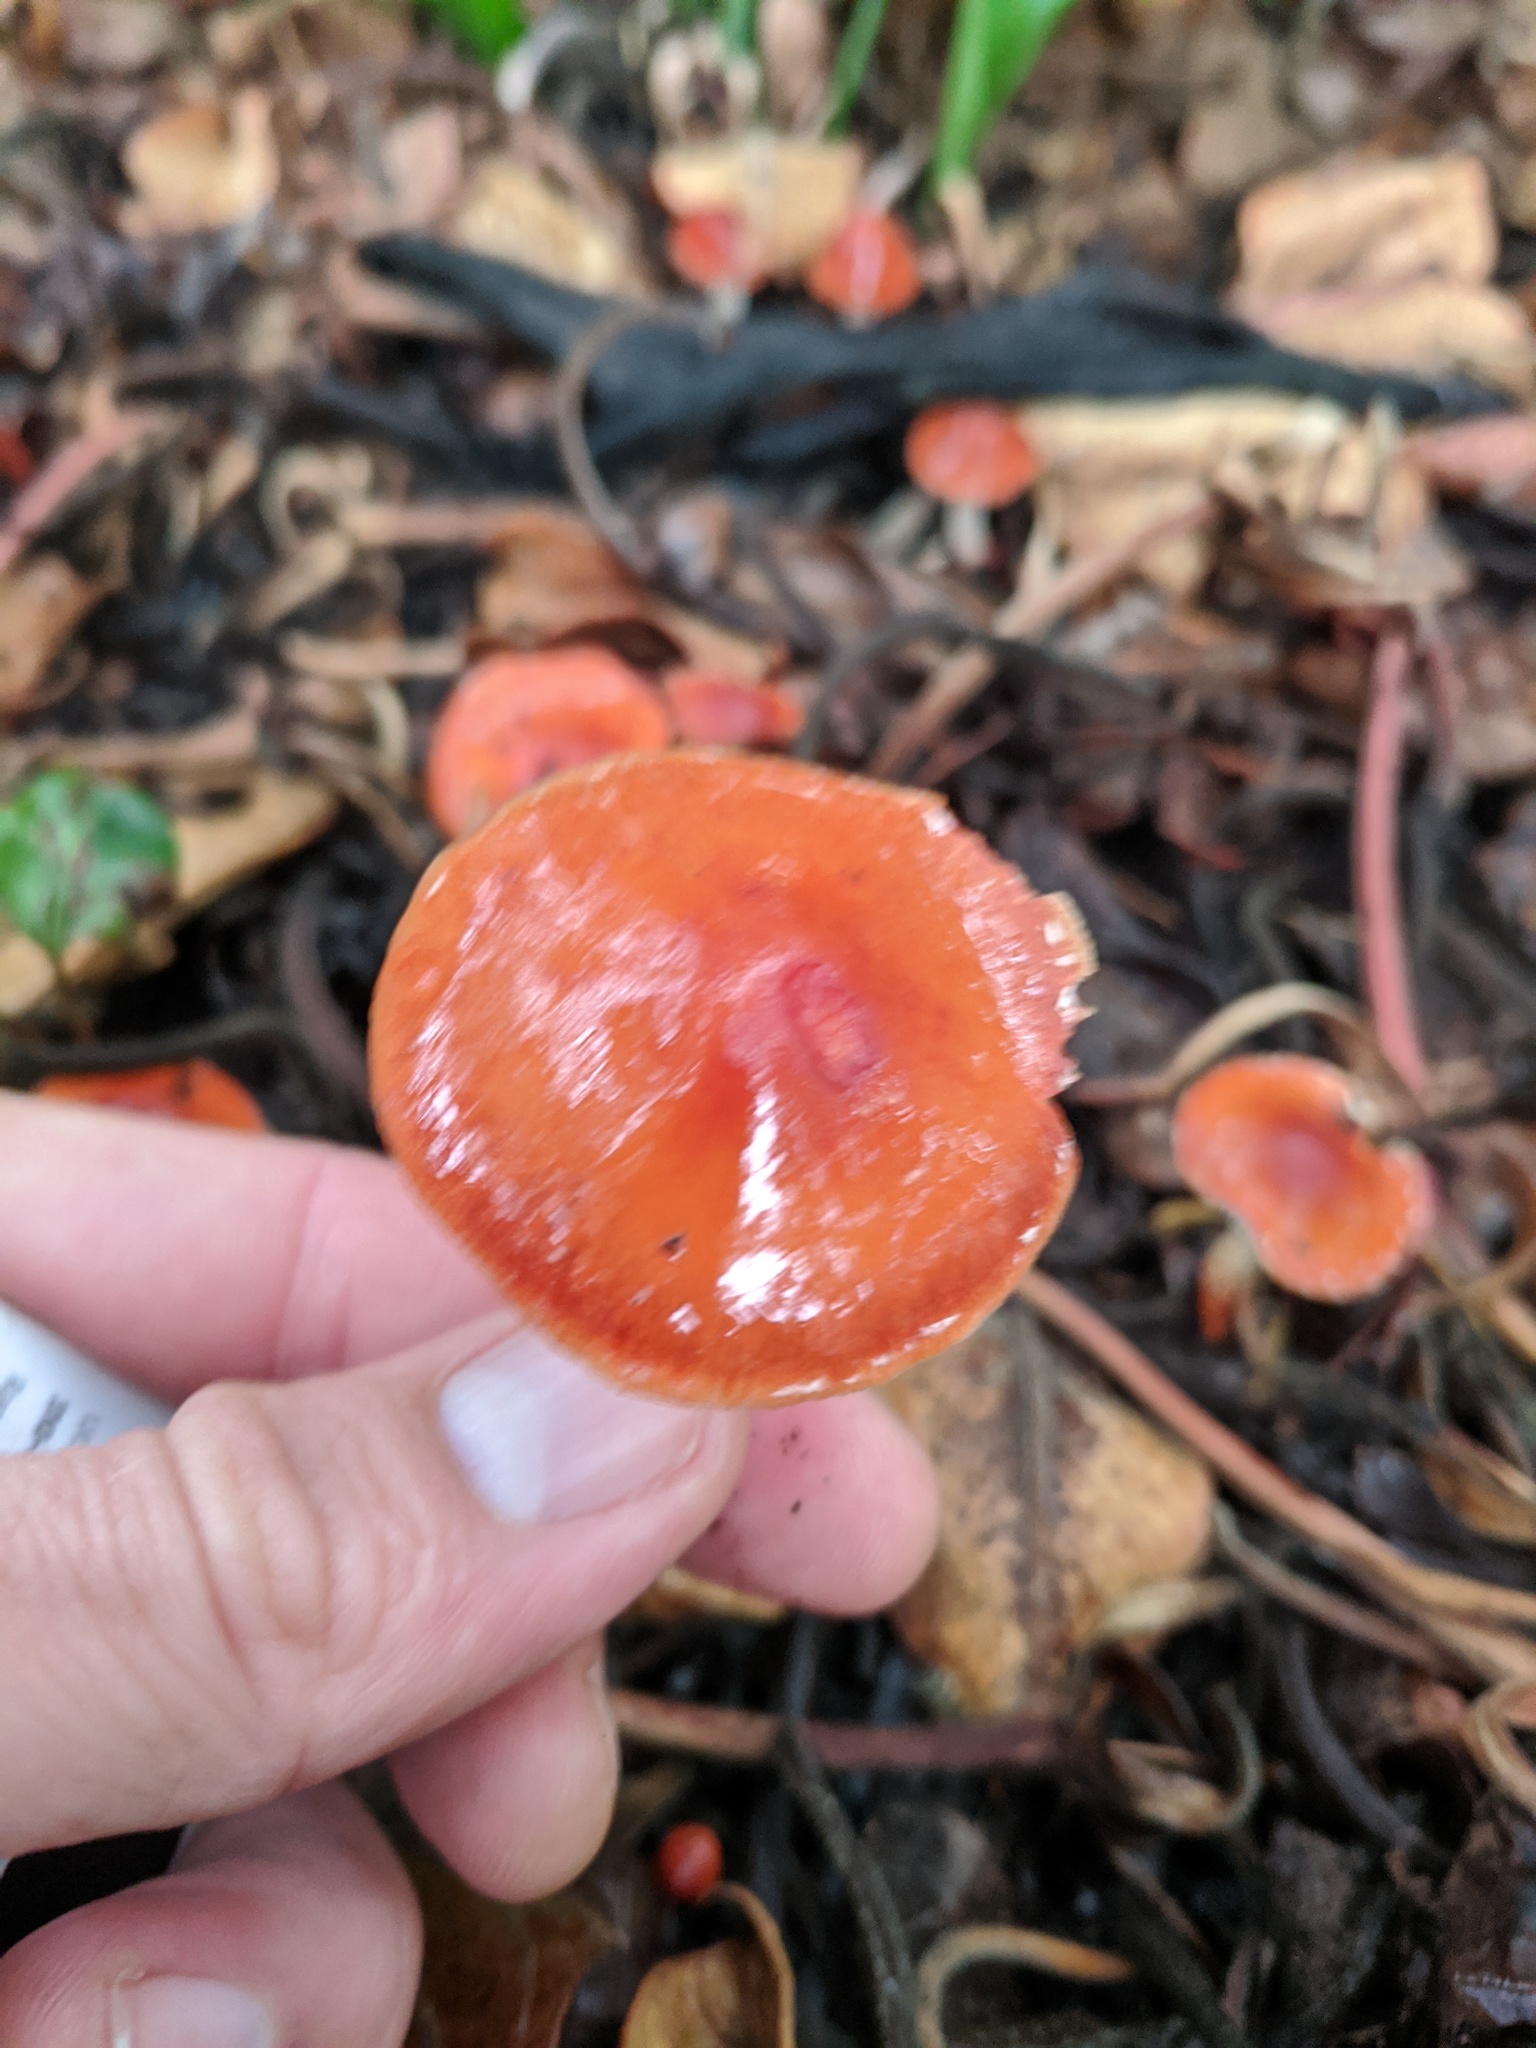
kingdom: Fungi
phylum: Basidiomycota
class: Agaricomycetes
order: Agaricales
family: Strophariaceae
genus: Leratiomyces
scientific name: Leratiomyces ceres
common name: Redlead roundhead
